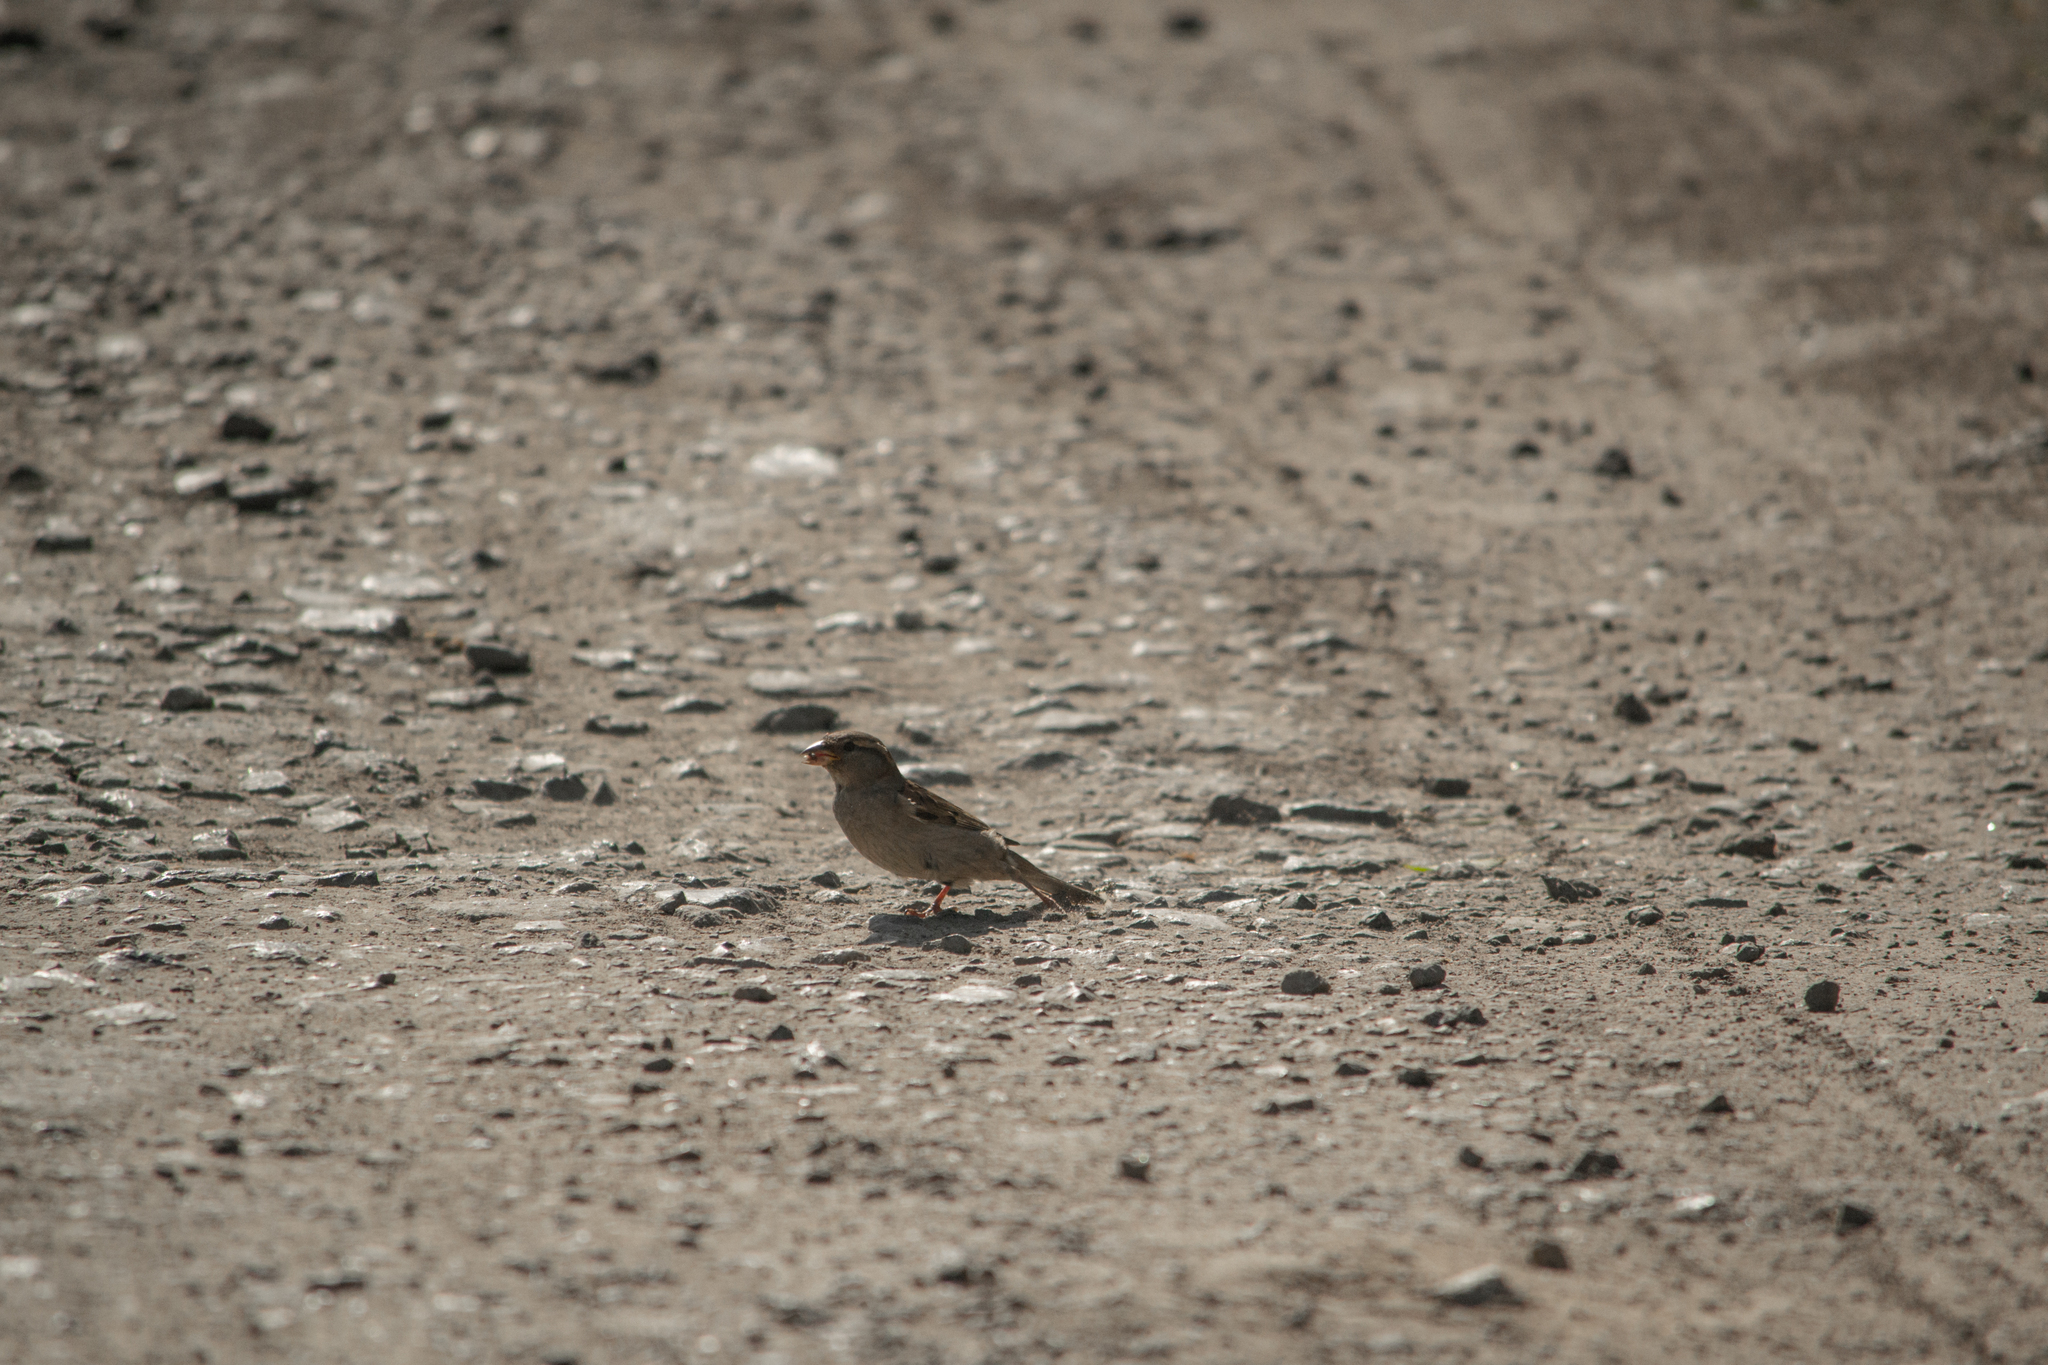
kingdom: Animalia
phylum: Chordata
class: Aves
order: Passeriformes
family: Passeridae
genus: Passer
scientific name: Passer domesticus
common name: House sparrow
